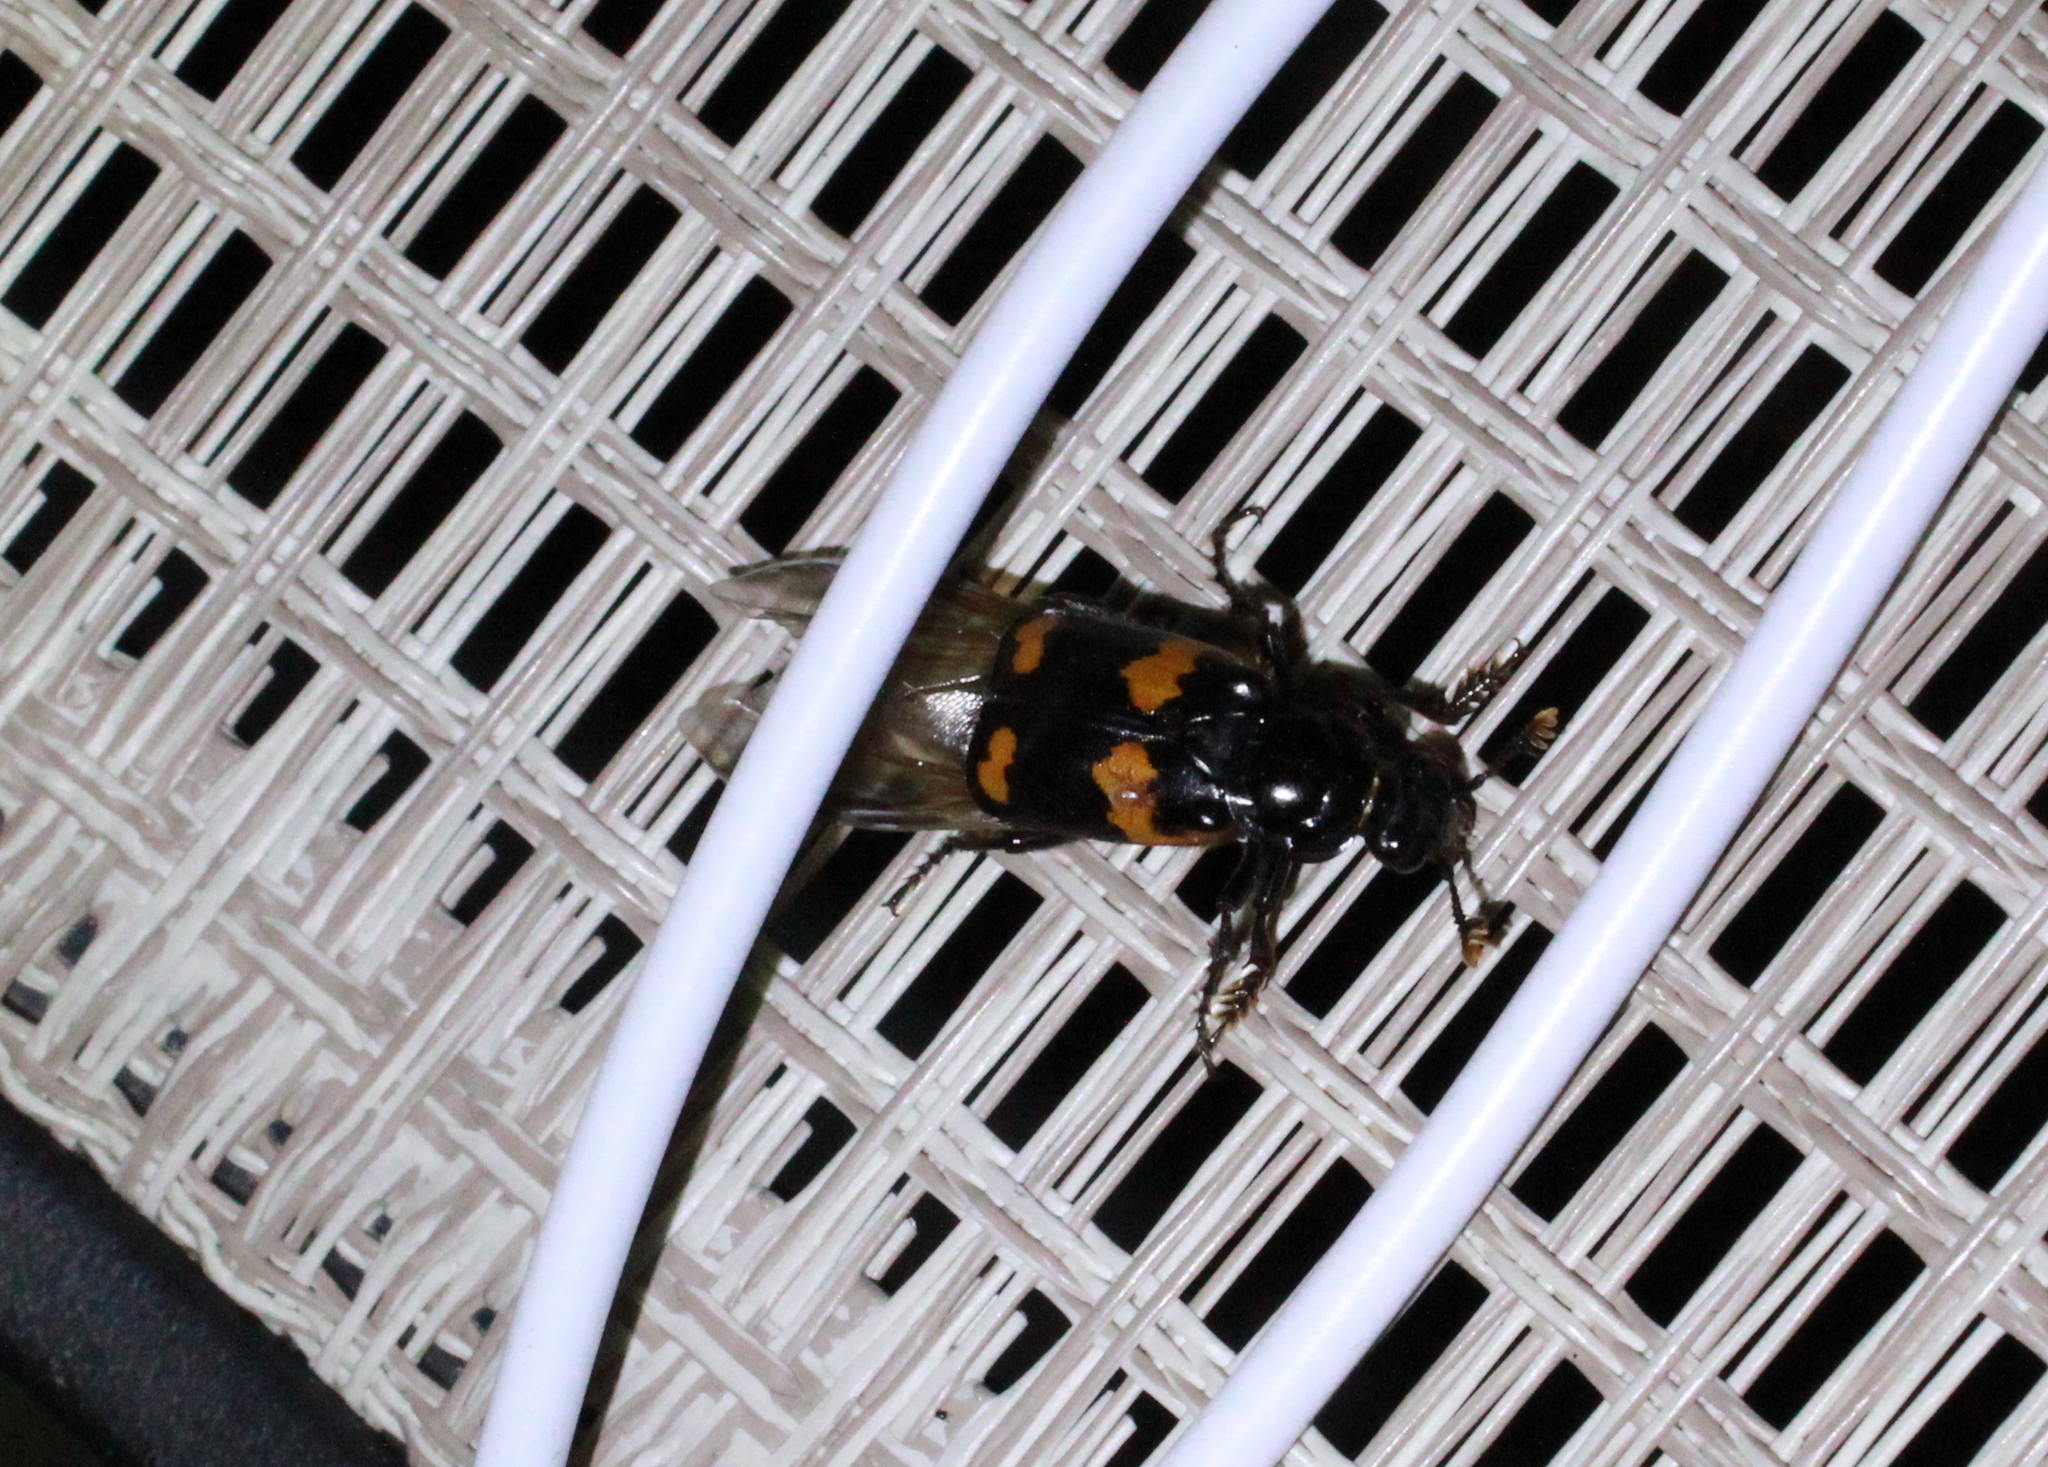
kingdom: Animalia
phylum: Arthropoda
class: Insecta
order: Coleoptera
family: Staphylinidae
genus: Nicrophorus
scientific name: Nicrophorus sayi
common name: Say's burying beetle
